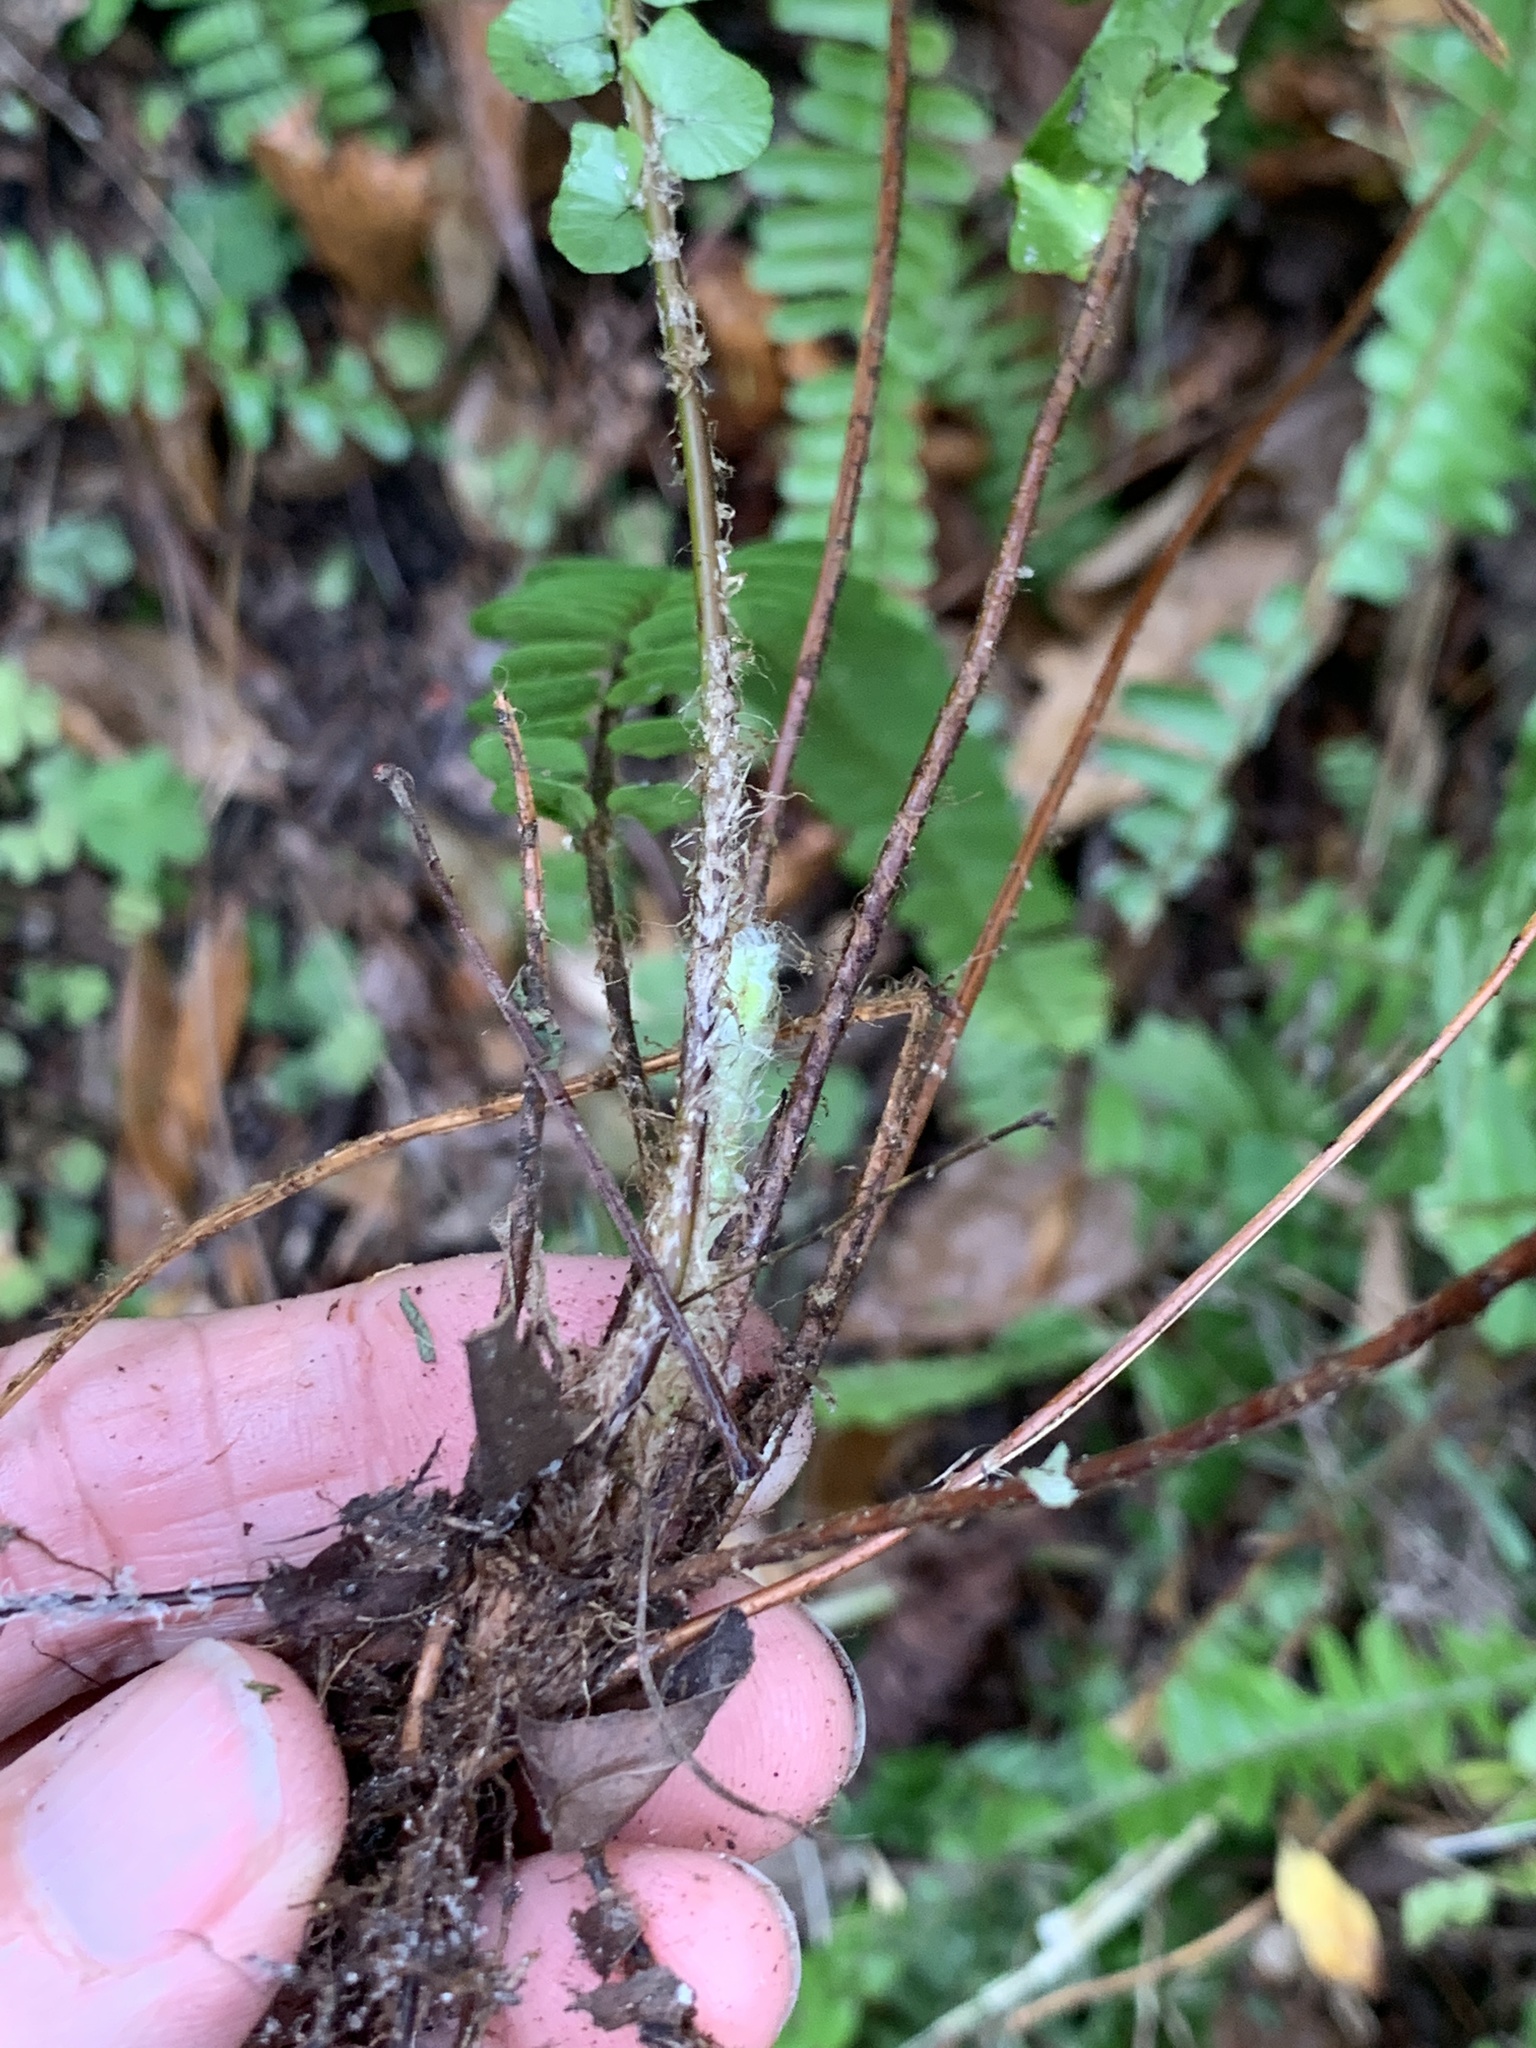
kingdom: Plantae
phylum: Tracheophyta
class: Polypodiopsida
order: Polypodiales
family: Nephrolepidaceae
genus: Nephrolepis
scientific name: Nephrolepis cordifolia
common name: Narrow swordfern
